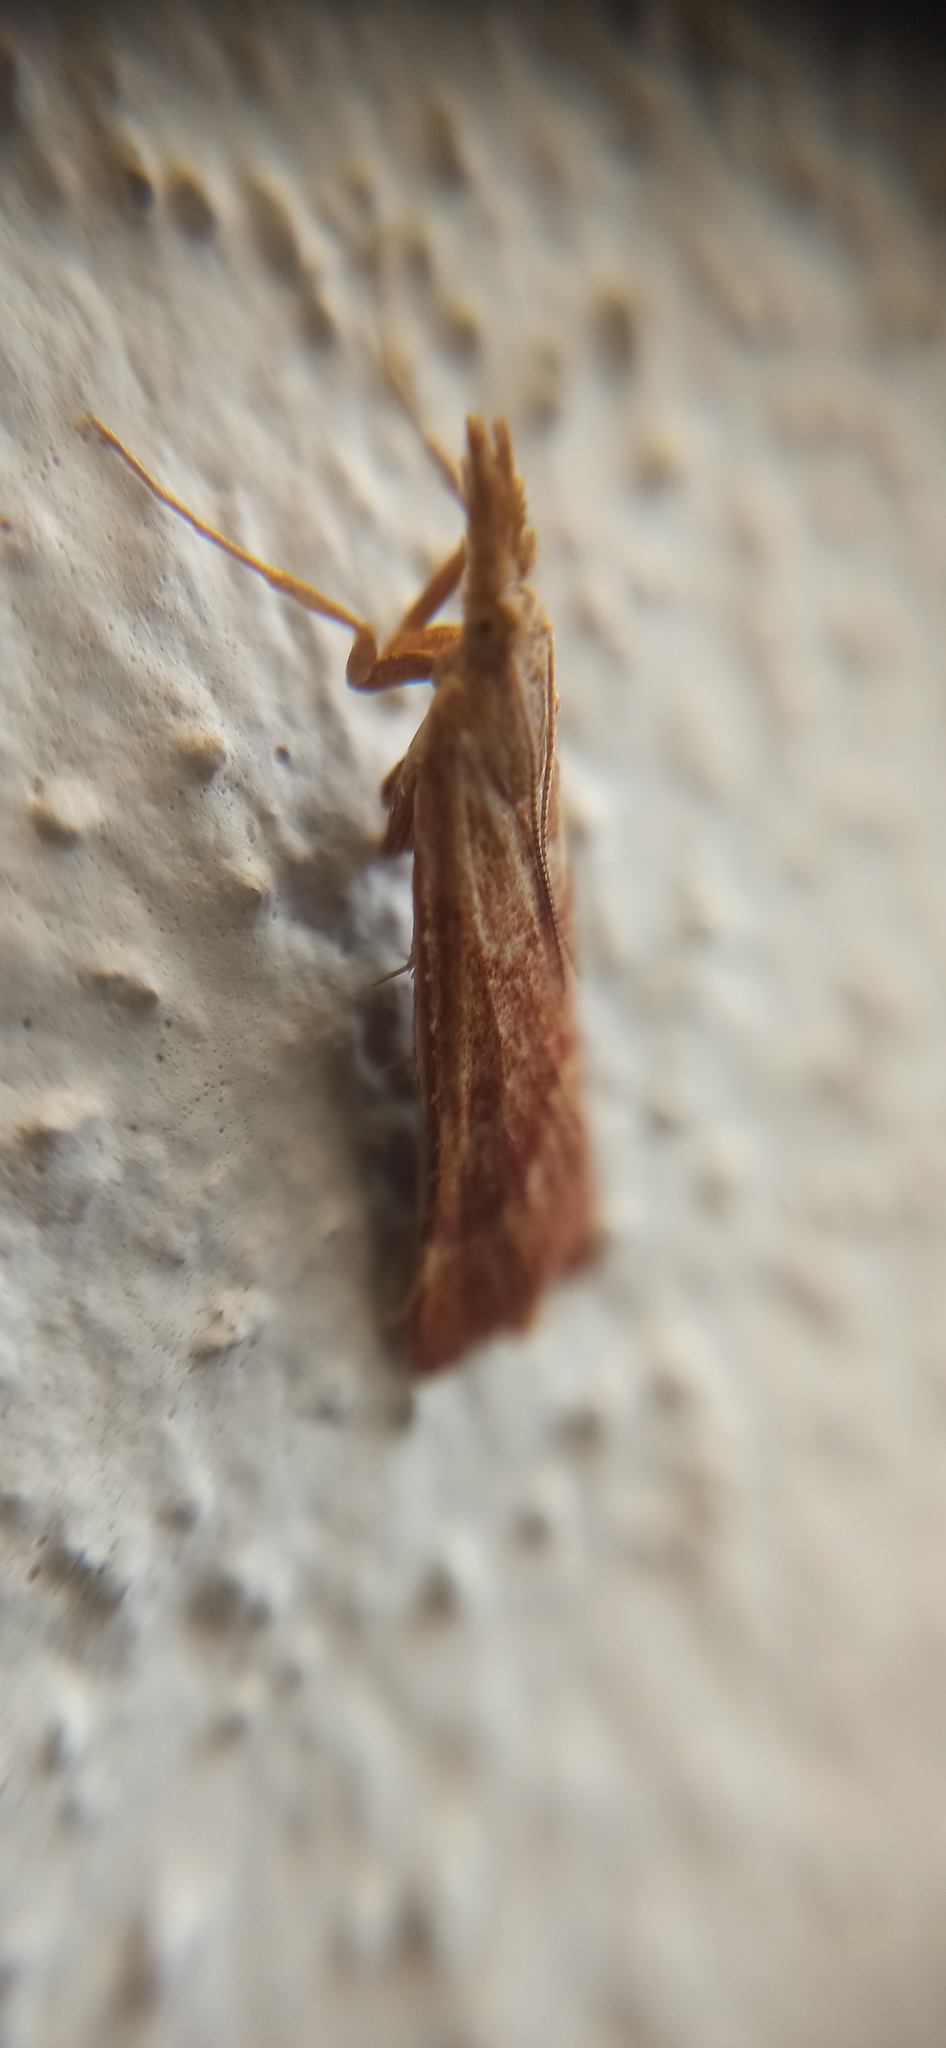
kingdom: Animalia
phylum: Arthropoda
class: Insecta
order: Lepidoptera
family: Pyralidae
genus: Synaphe
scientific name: Synaphe punctalis
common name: Long-legged tabby
